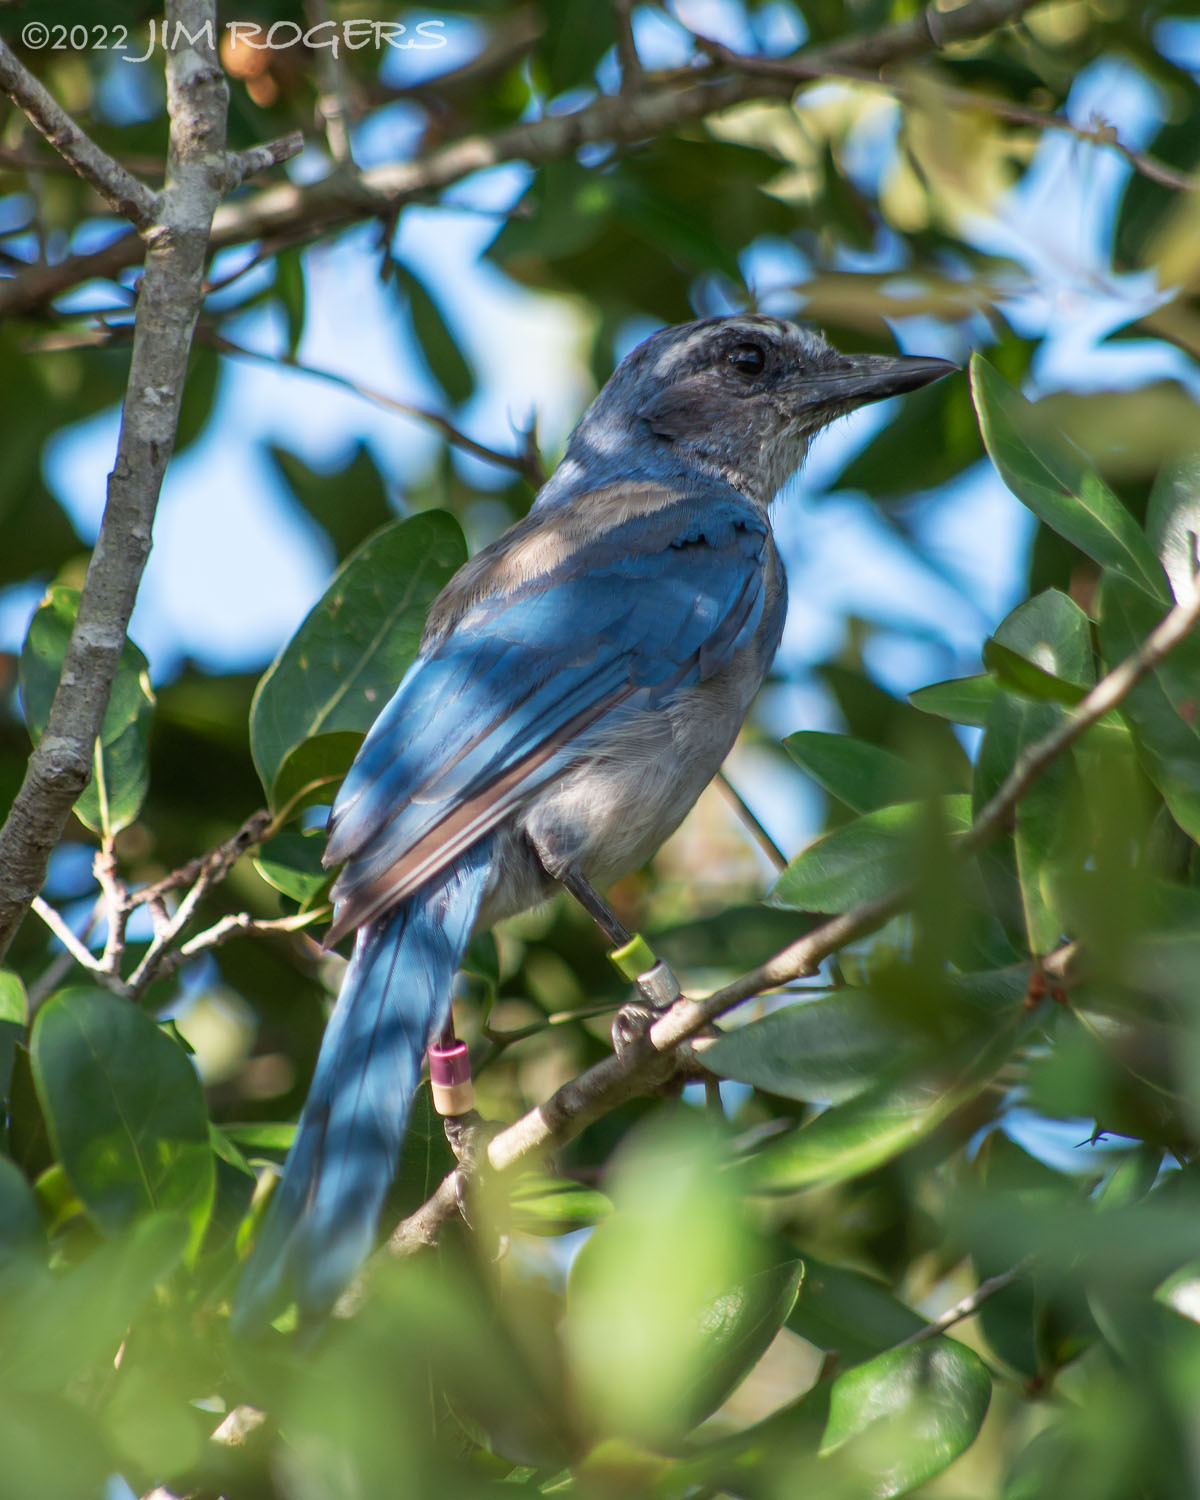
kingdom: Animalia
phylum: Chordata
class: Aves
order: Passeriformes
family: Corvidae
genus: Aphelocoma
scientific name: Aphelocoma coerulescens
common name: Florida scrub jay
